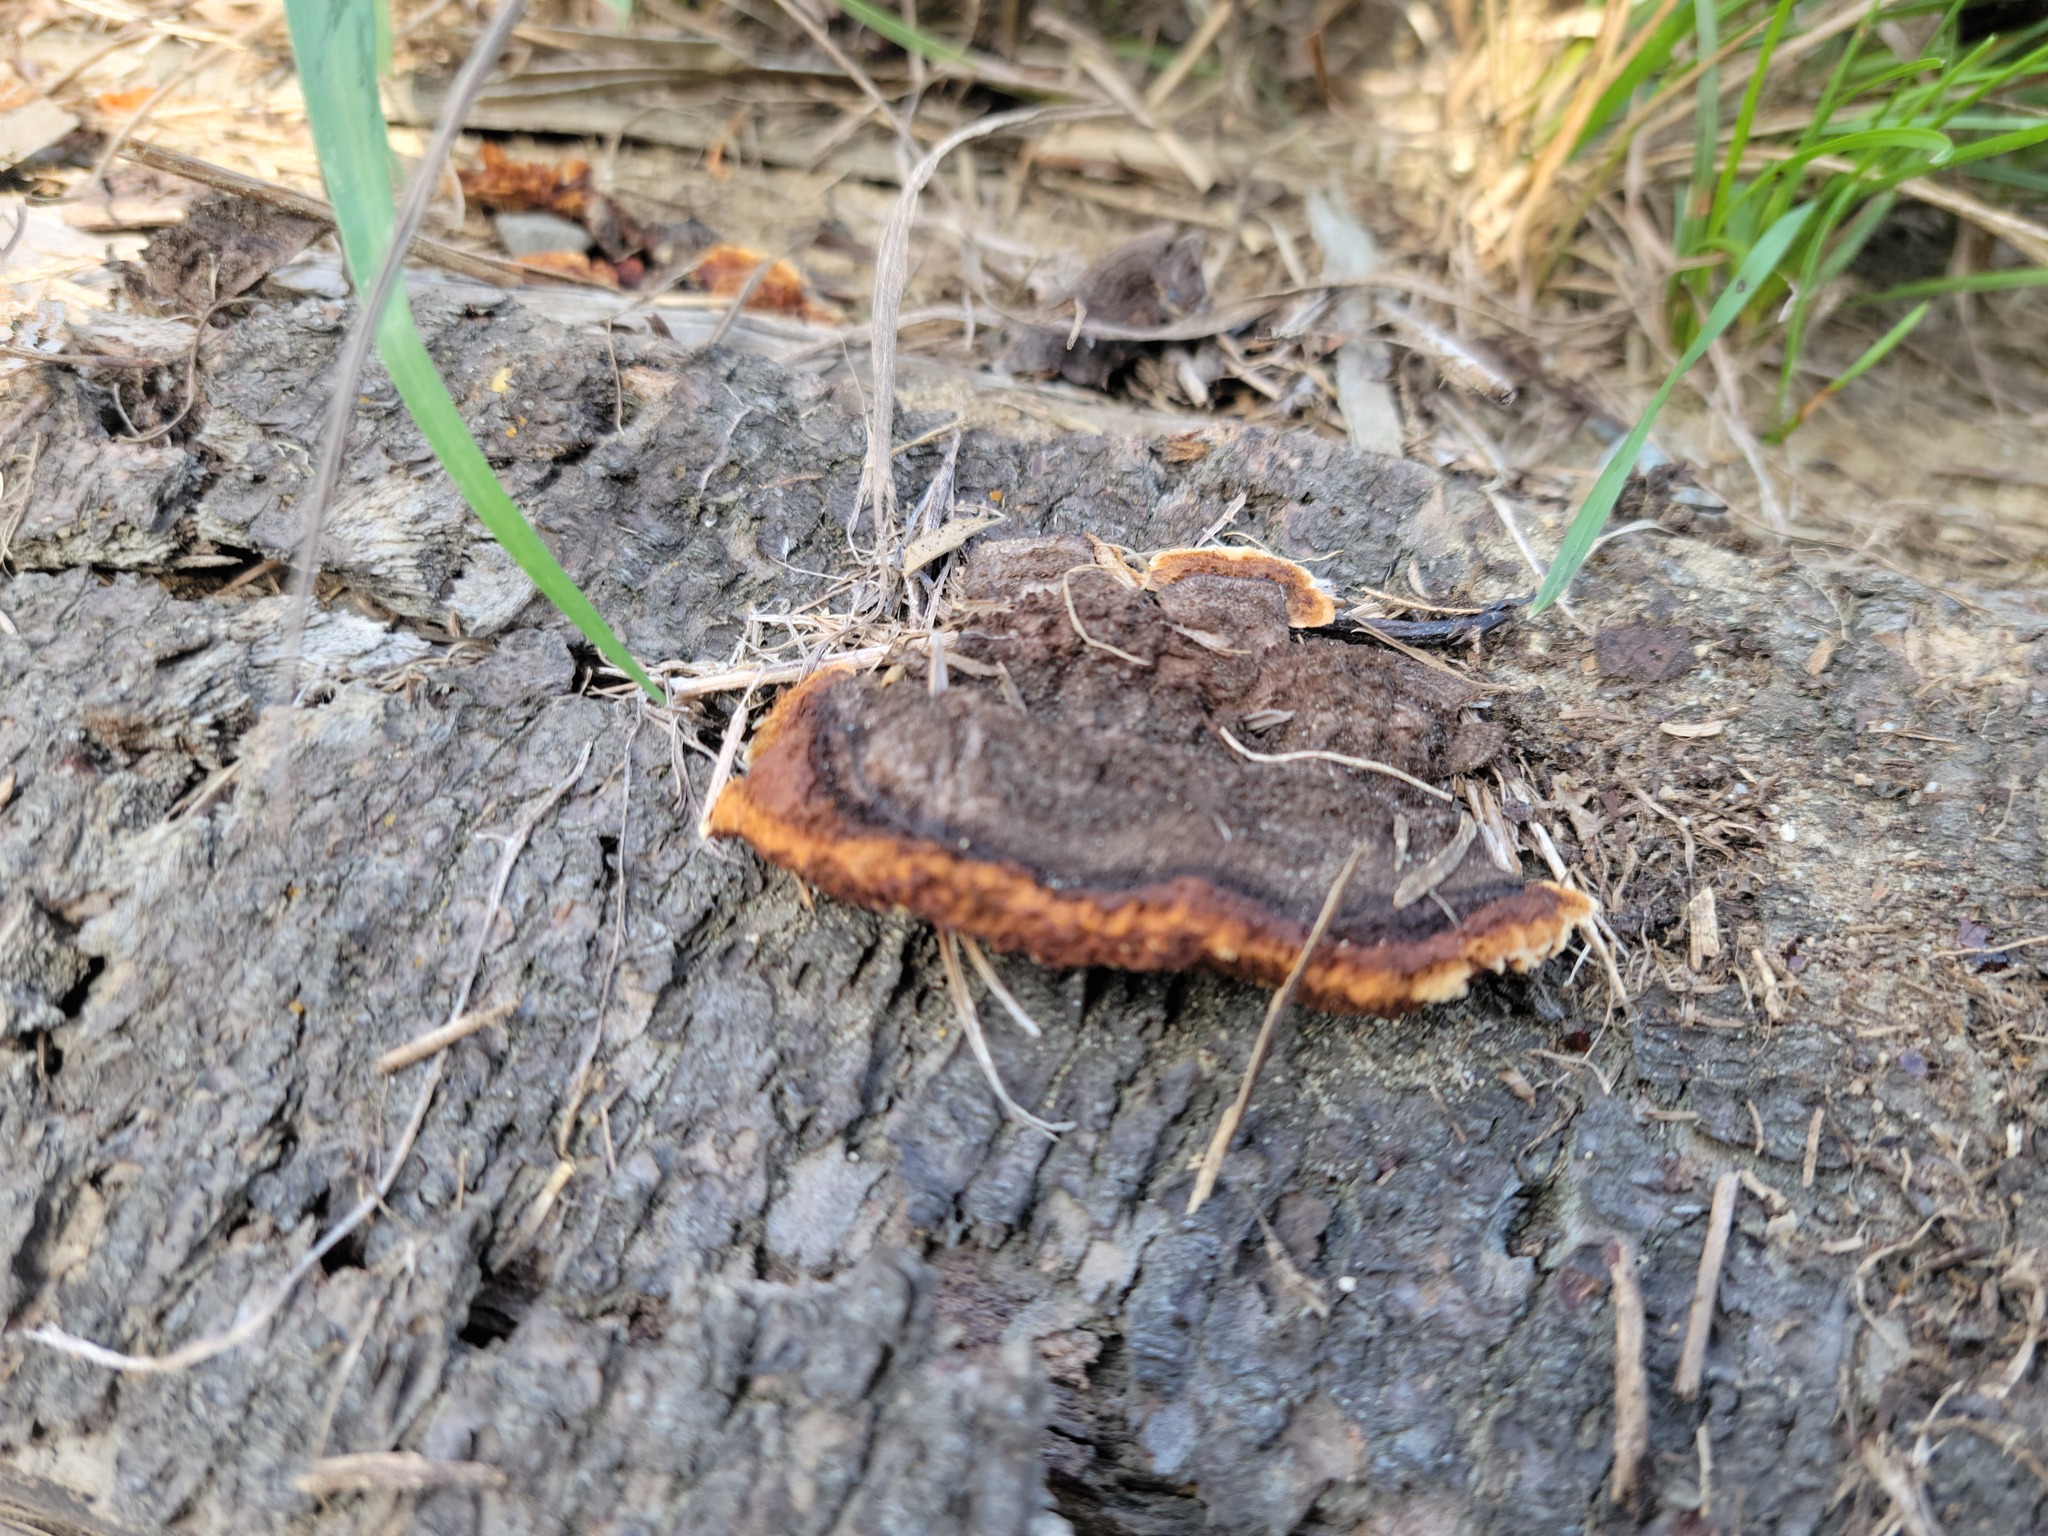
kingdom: Fungi
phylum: Basidiomycota
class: Agaricomycetes
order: Gloeophyllales
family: Gloeophyllaceae
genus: Gloeophyllum
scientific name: Gloeophyllum sepiarium
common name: Conifer mazegill
